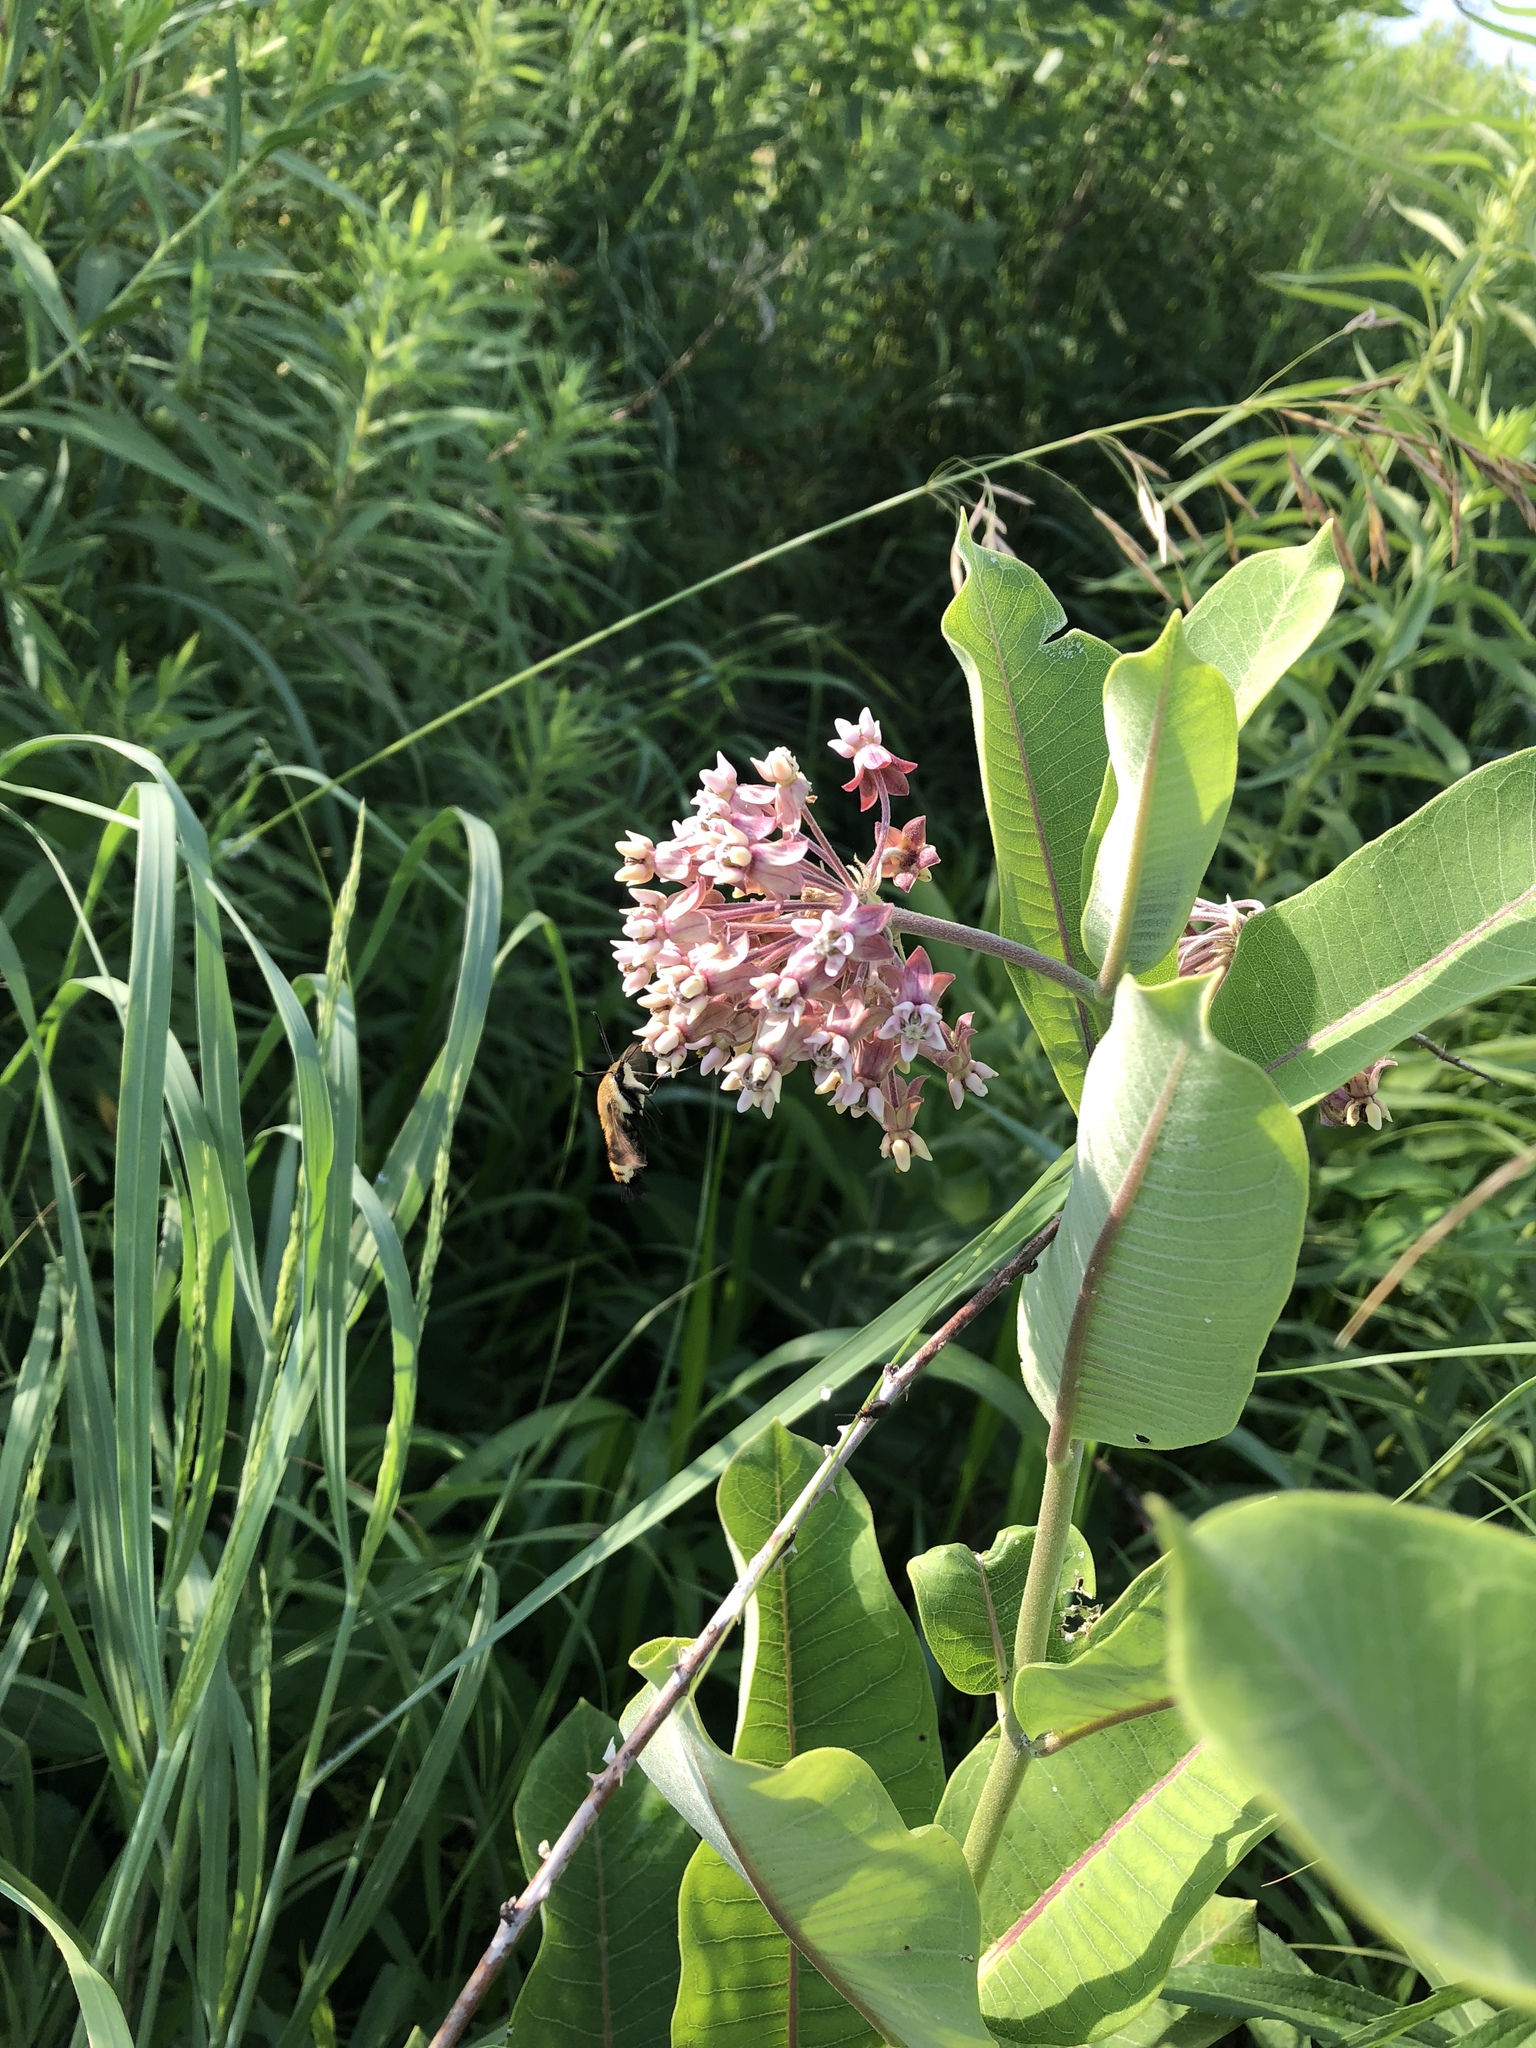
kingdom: Animalia
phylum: Arthropoda
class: Insecta
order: Lepidoptera
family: Sphingidae
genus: Hemaris
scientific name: Hemaris diffinis
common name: Bumblebee moth
